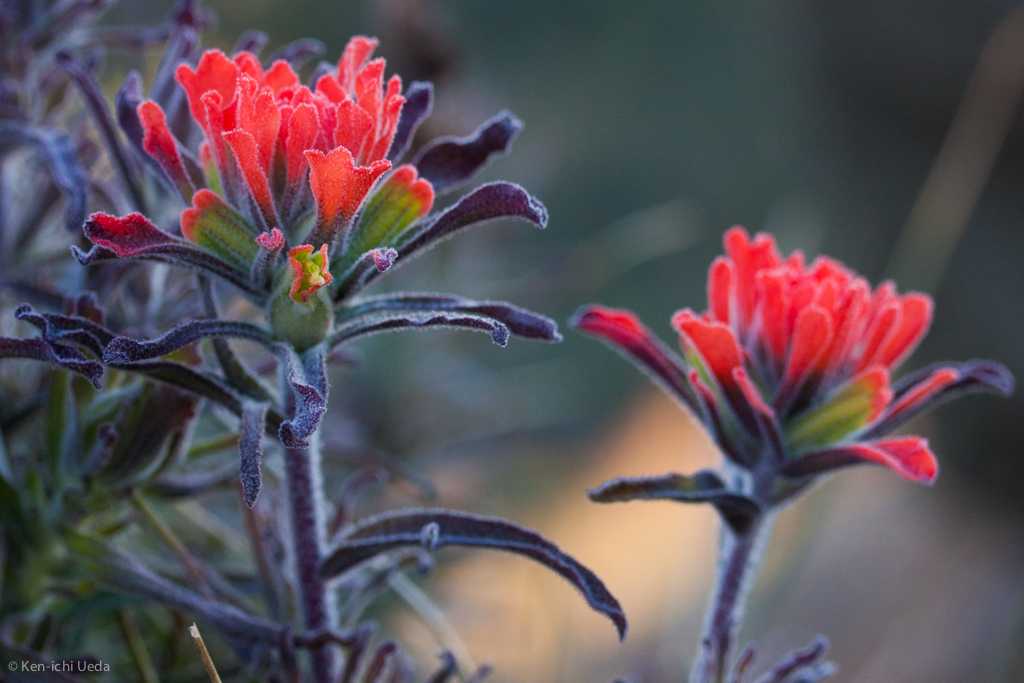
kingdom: Plantae
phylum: Tracheophyta
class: Magnoliopsida
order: Lamiales
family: Orobanchaceae
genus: Castilleja
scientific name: Castilleja foliolosa
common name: Woolly indian paintbrush
